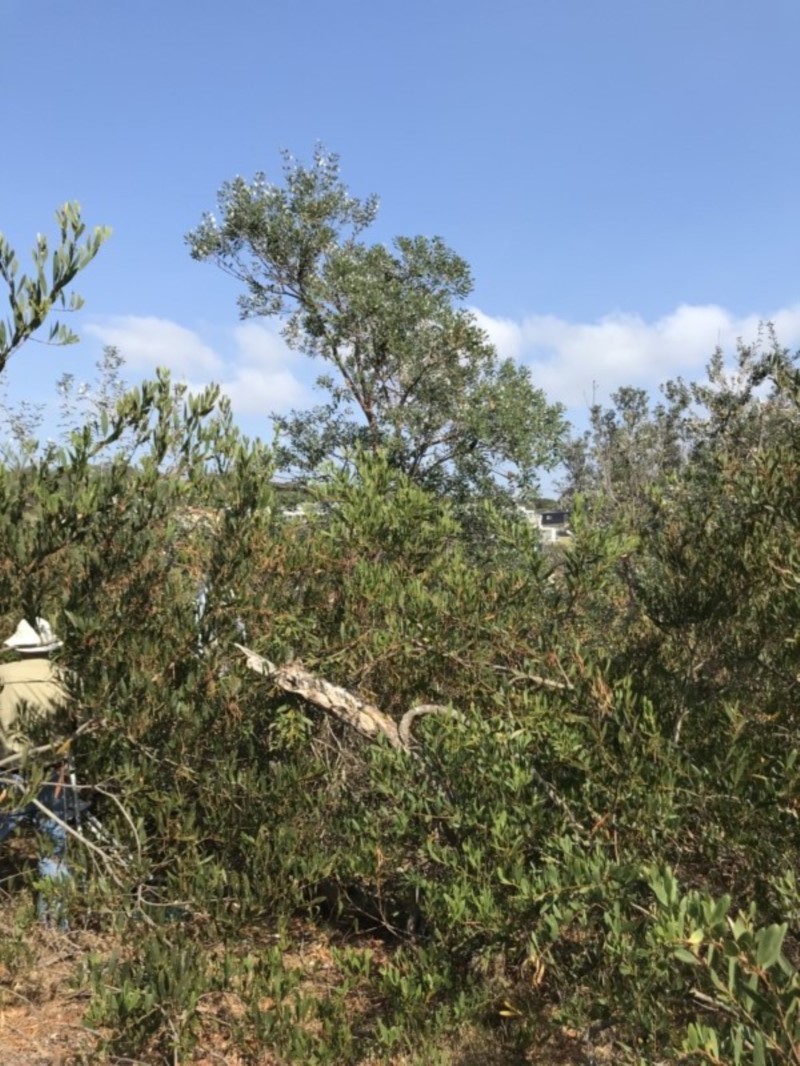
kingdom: Plantae
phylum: Tracheophyta
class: Magnoliopsida
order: Proteales
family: Proteaceae
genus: Banksia
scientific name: Banksia integrifolia
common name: White-honeysuckle
